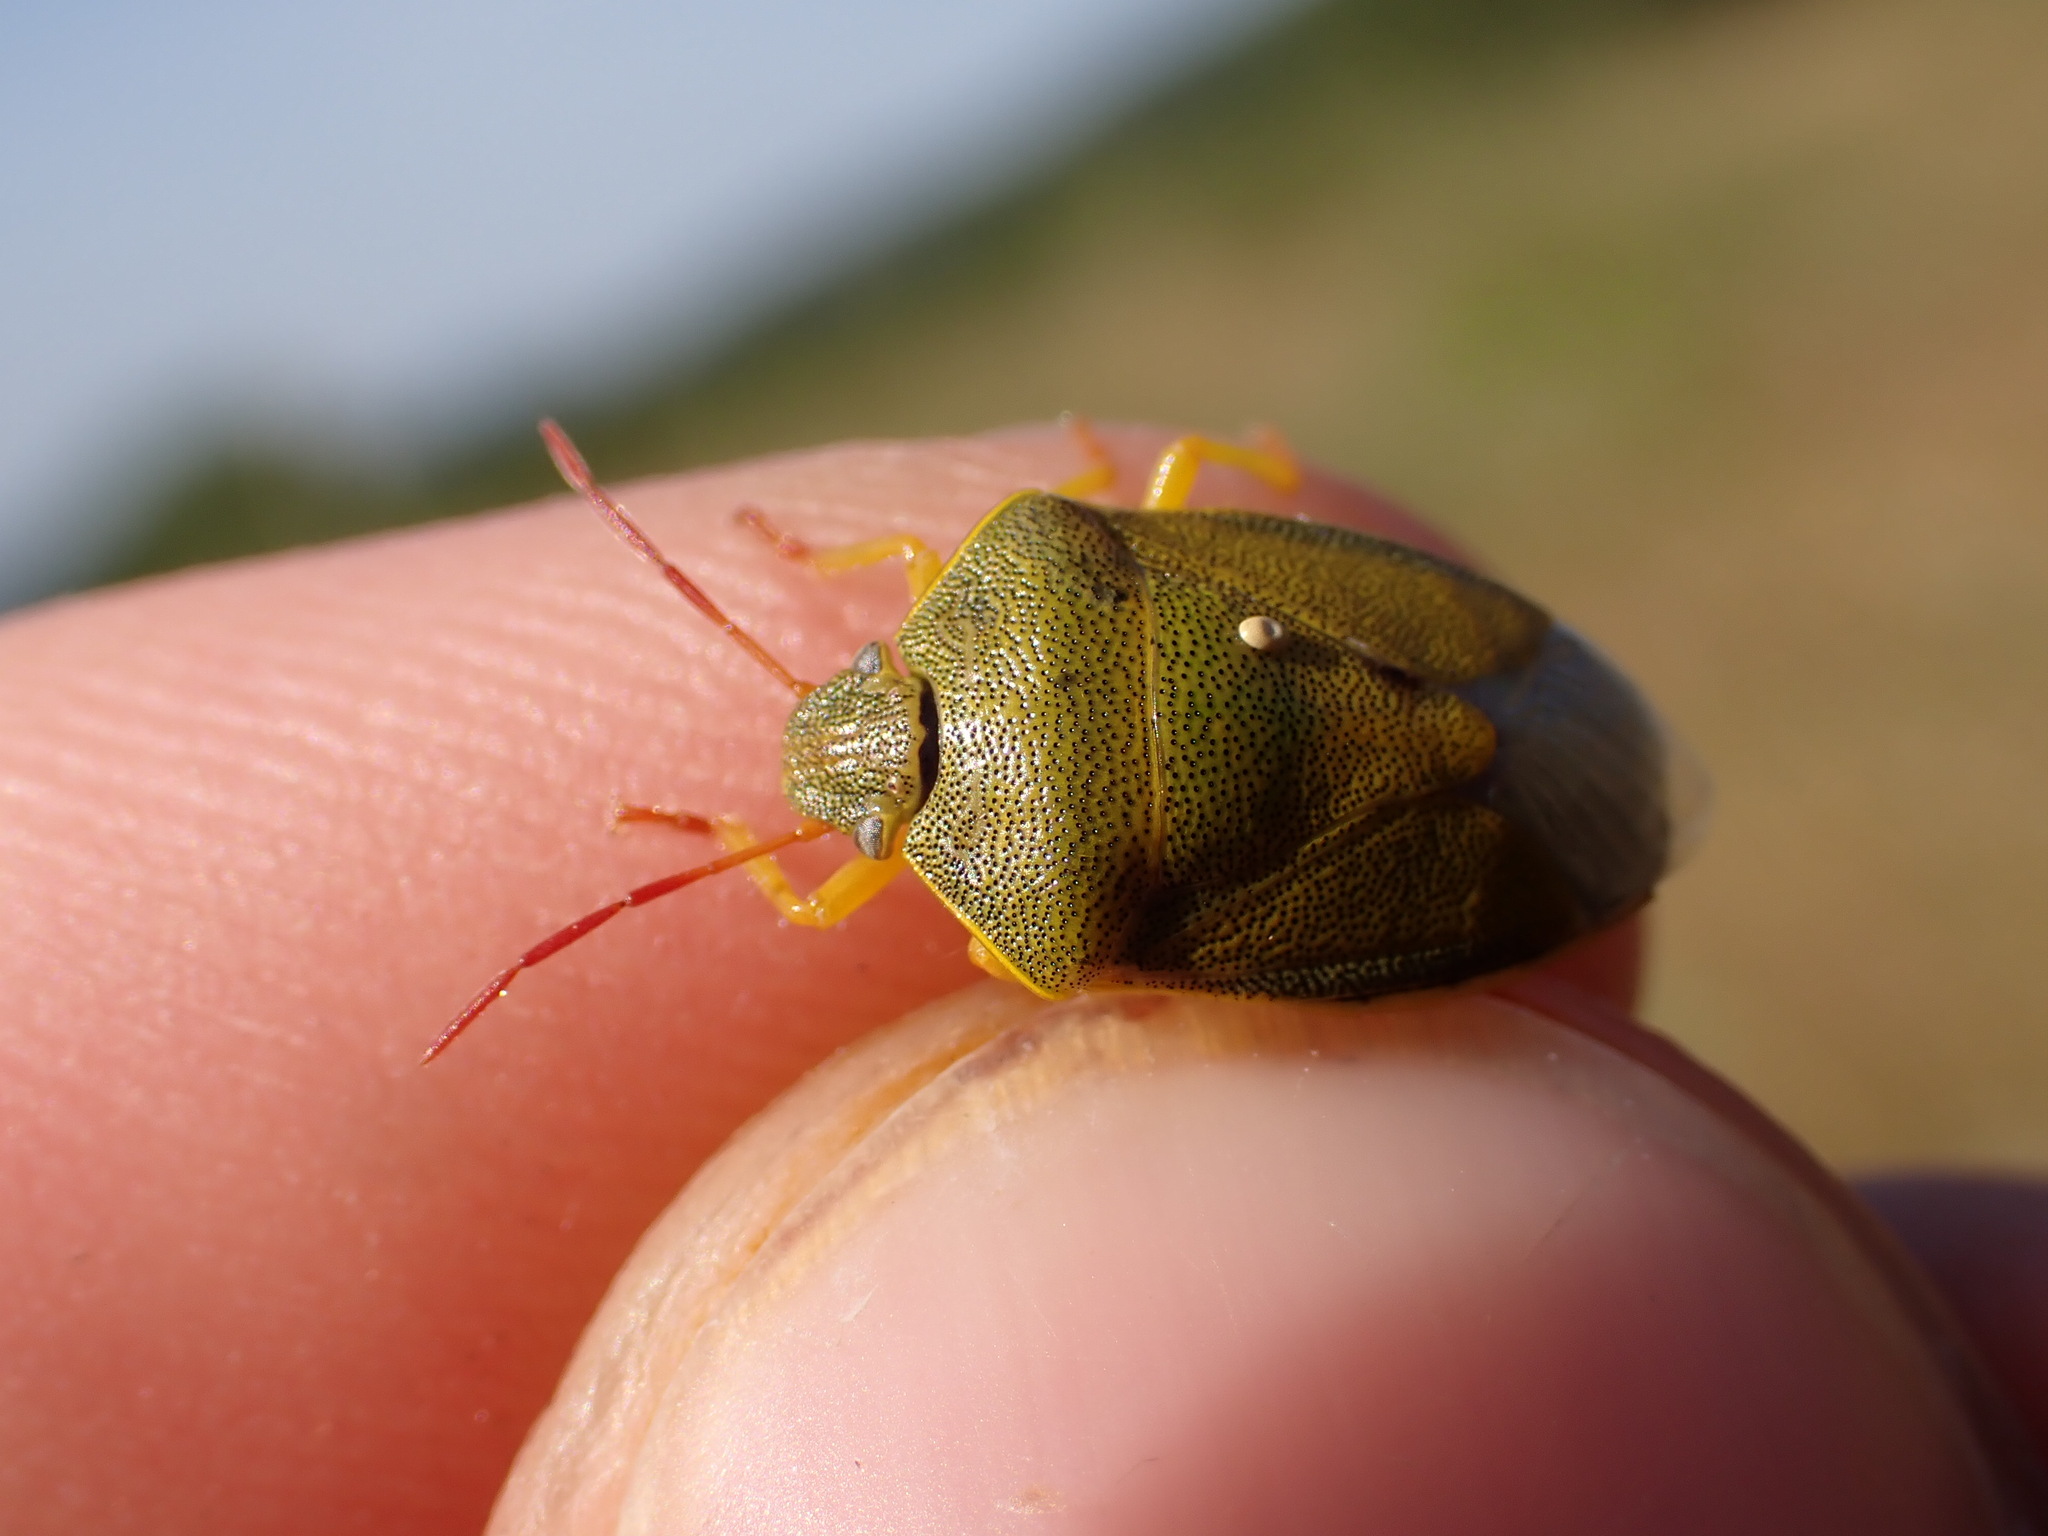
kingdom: Animalia
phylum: Arthropoda
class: Insecta
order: Hemiptera
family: Pentatomidae
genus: Piezodorus
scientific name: Piezodorus lituratus
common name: Stink bug
